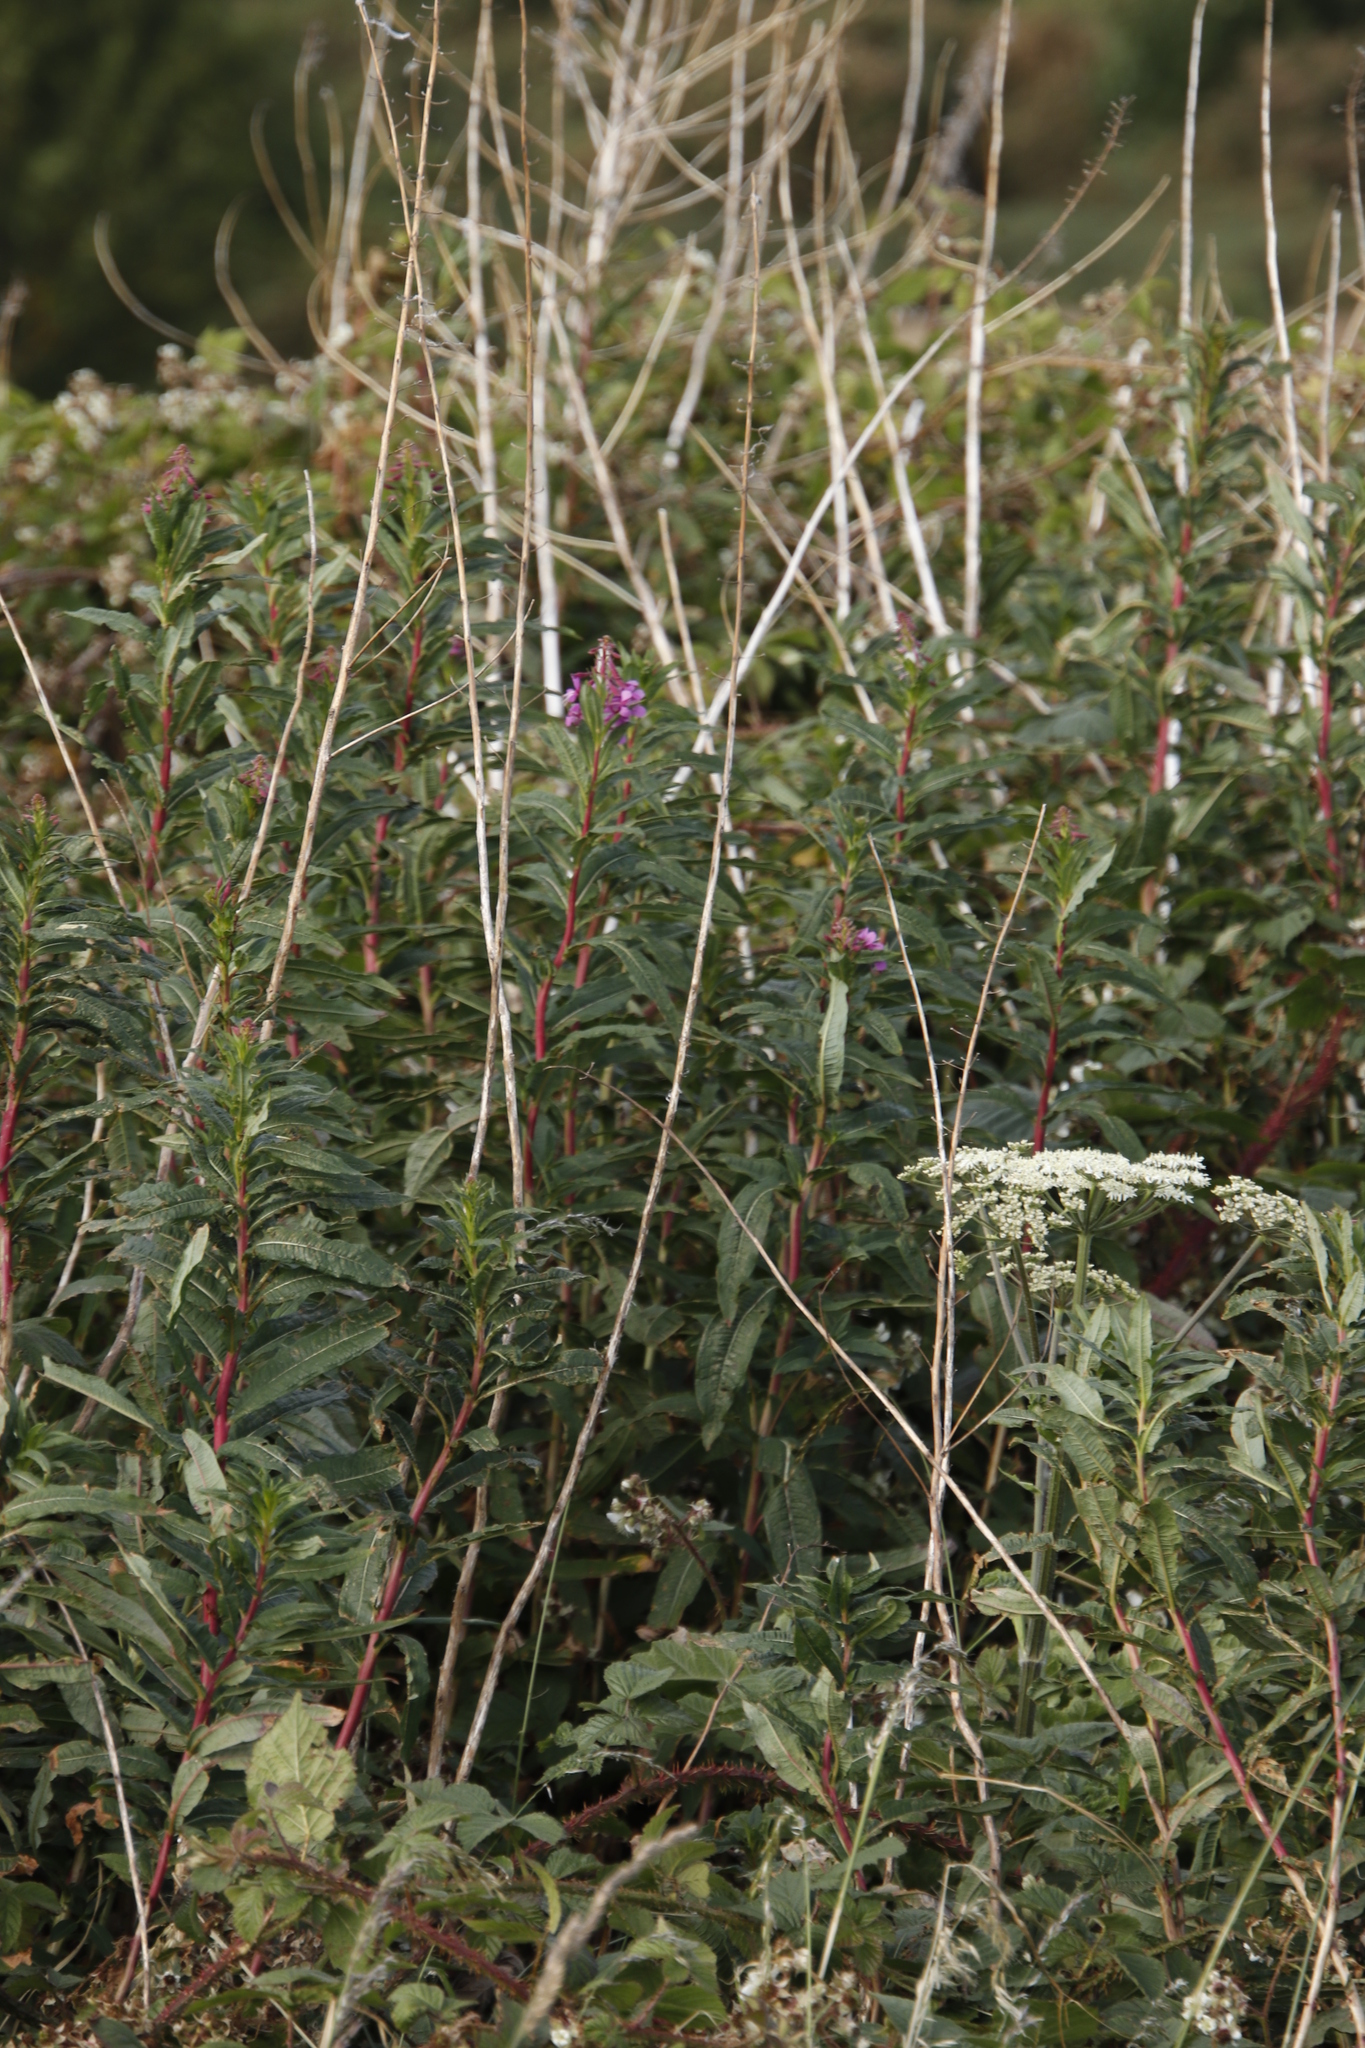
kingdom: Plantae
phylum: Tracheophyta
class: Magnoliopsida
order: Myrtales
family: Onagraceae
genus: Chamaenerion
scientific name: Chamaenerion angustifolium
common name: Fireweed
